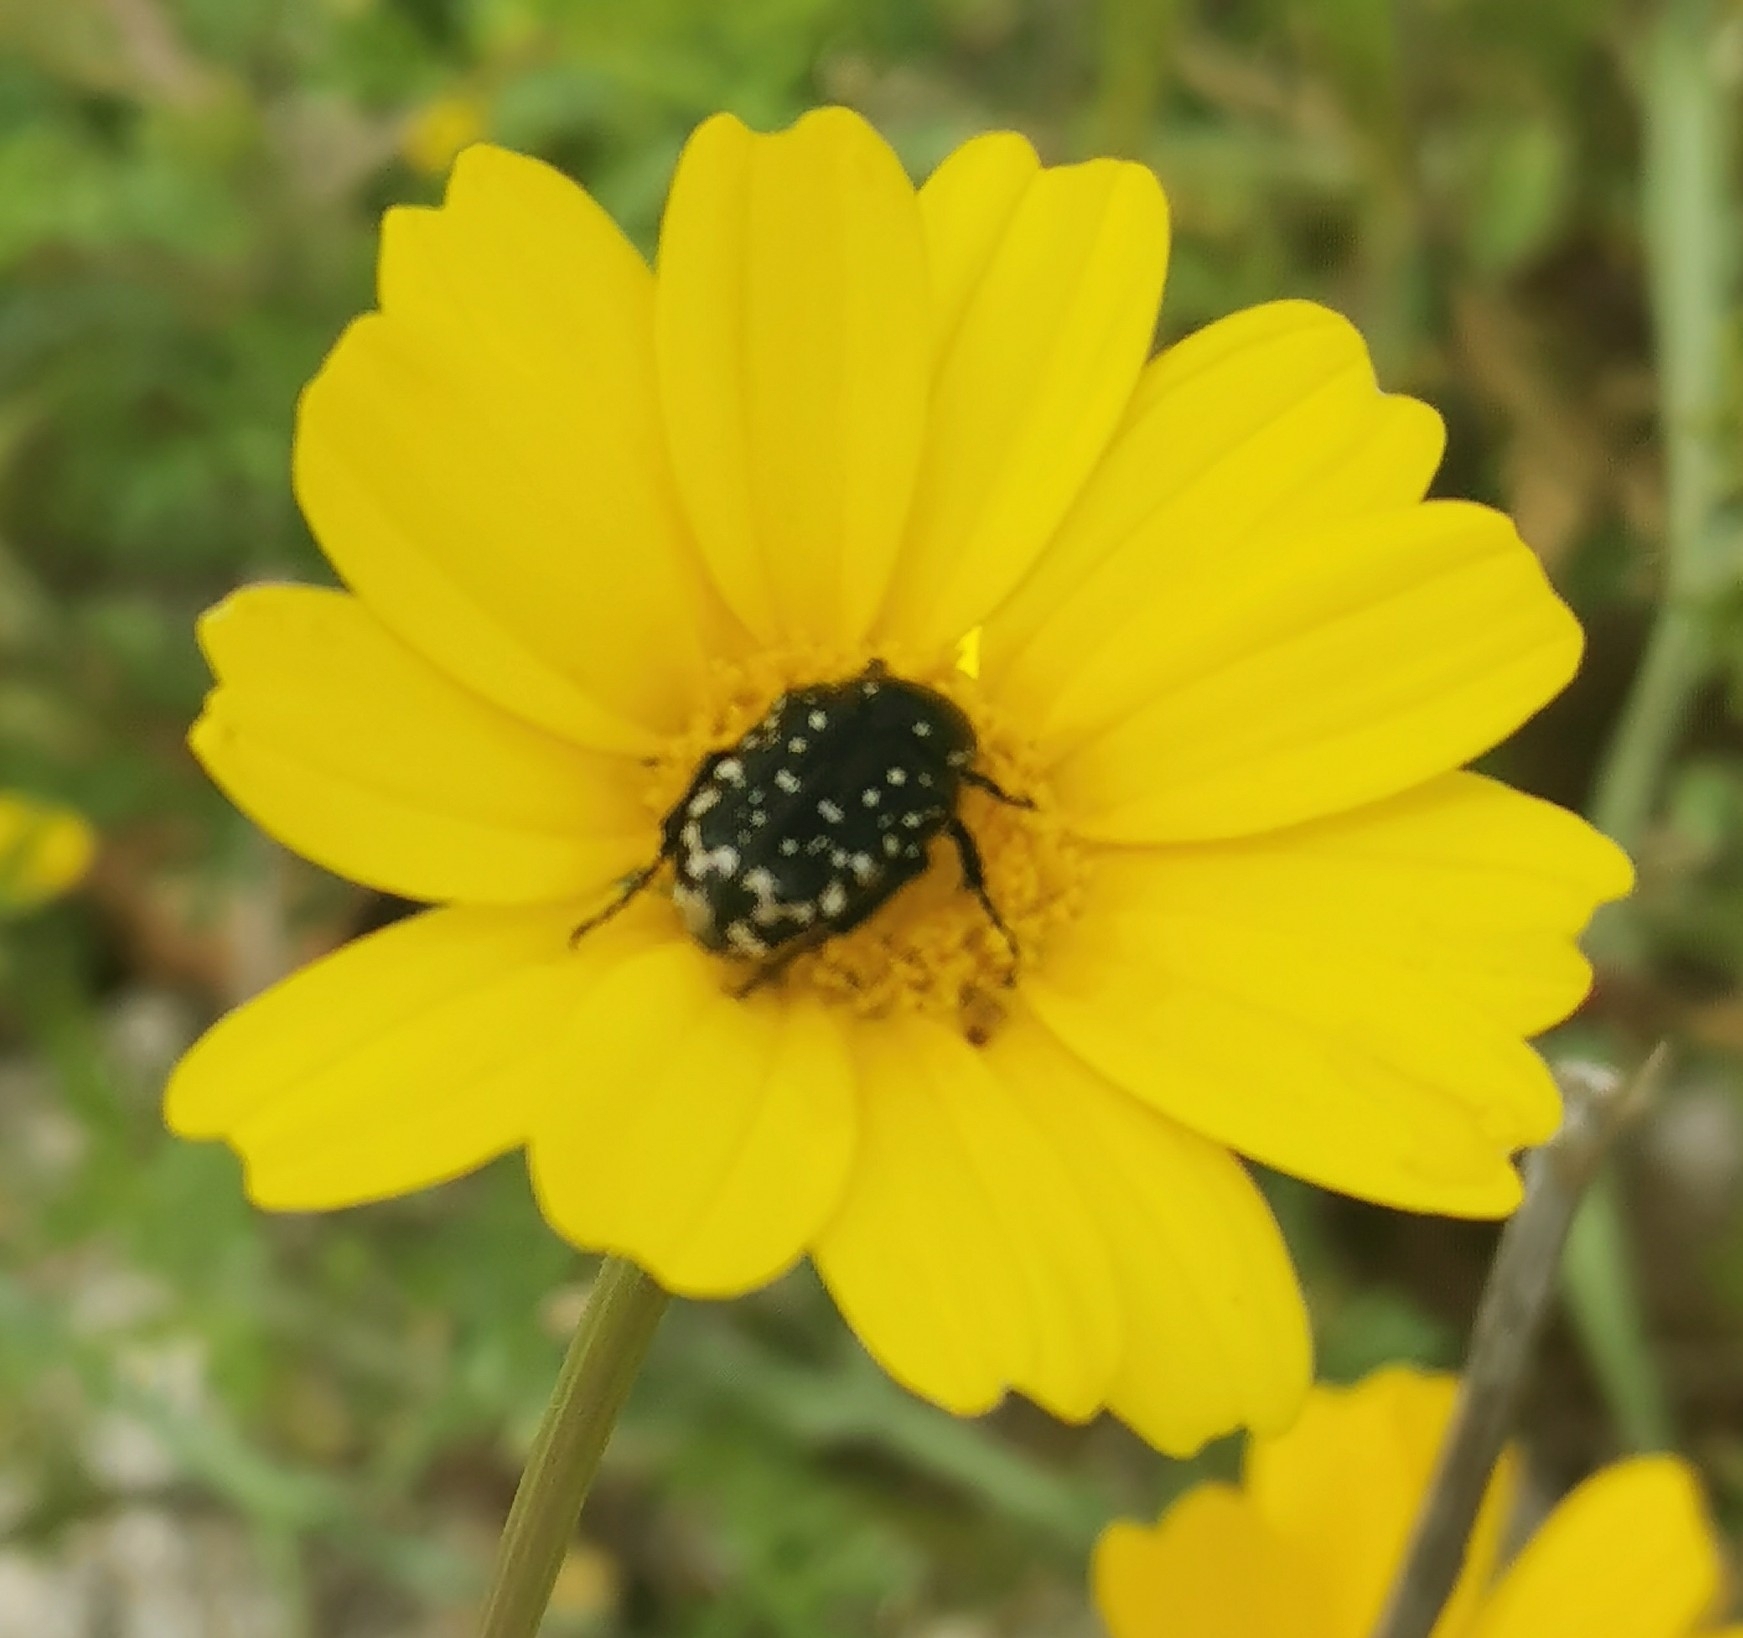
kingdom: Animalia
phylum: Arthropoda
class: Insecta
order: Coleoptera
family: Scarabaeidae
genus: Oxythyrea
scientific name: Oxythyrea cinctella
